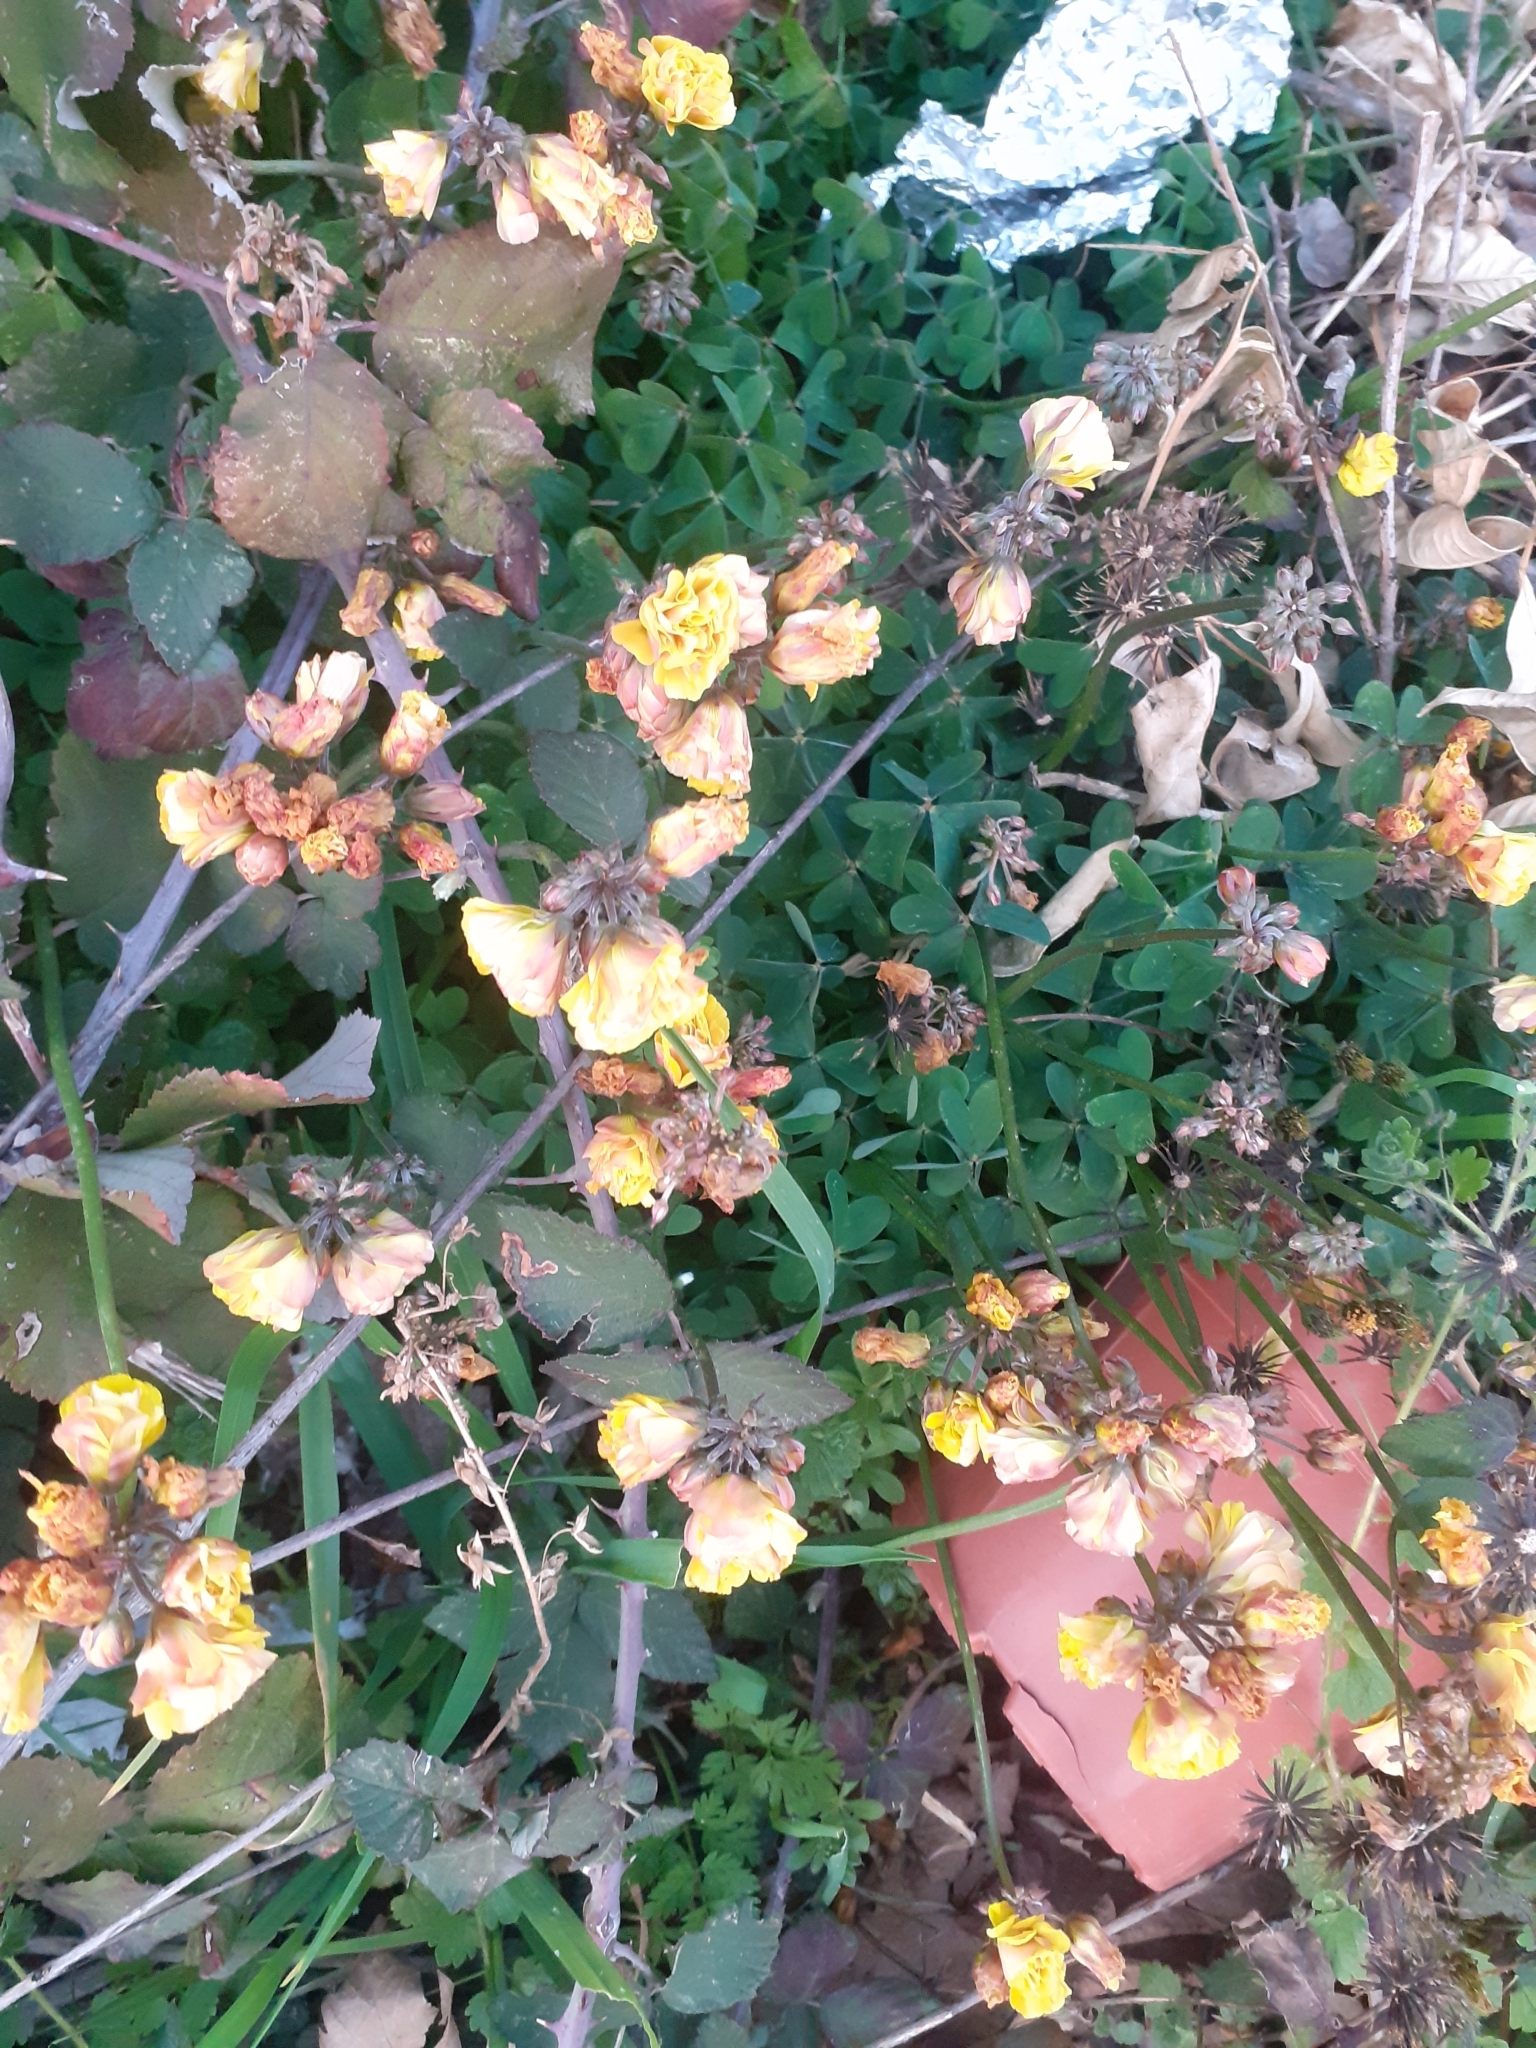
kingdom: Plantae
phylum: Tracheophyta
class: Magnoliopsida
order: Oxalidales
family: Oxalidaceae
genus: Oxalis
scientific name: Oxalis pes-caprae
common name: Bermuda-buttercup
